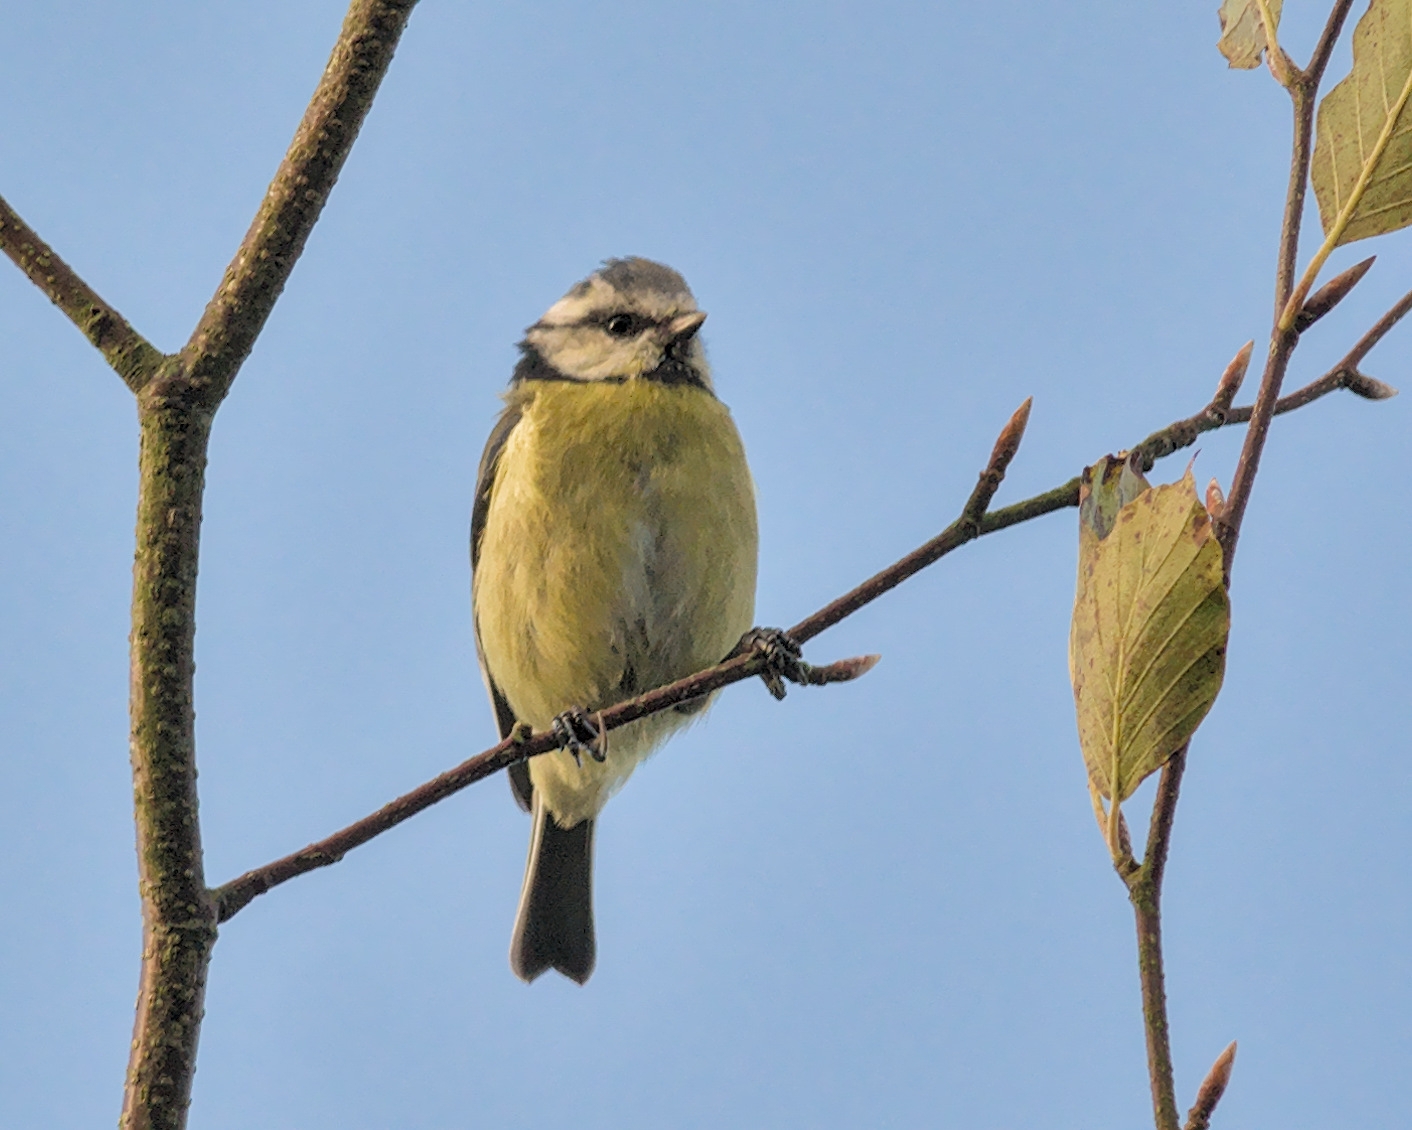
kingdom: Animalia
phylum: Chordata
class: Aves
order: Passeriformes
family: Paridae
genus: Cyanistes
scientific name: Cyanistes caeruleus
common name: Eurasian blue tit
